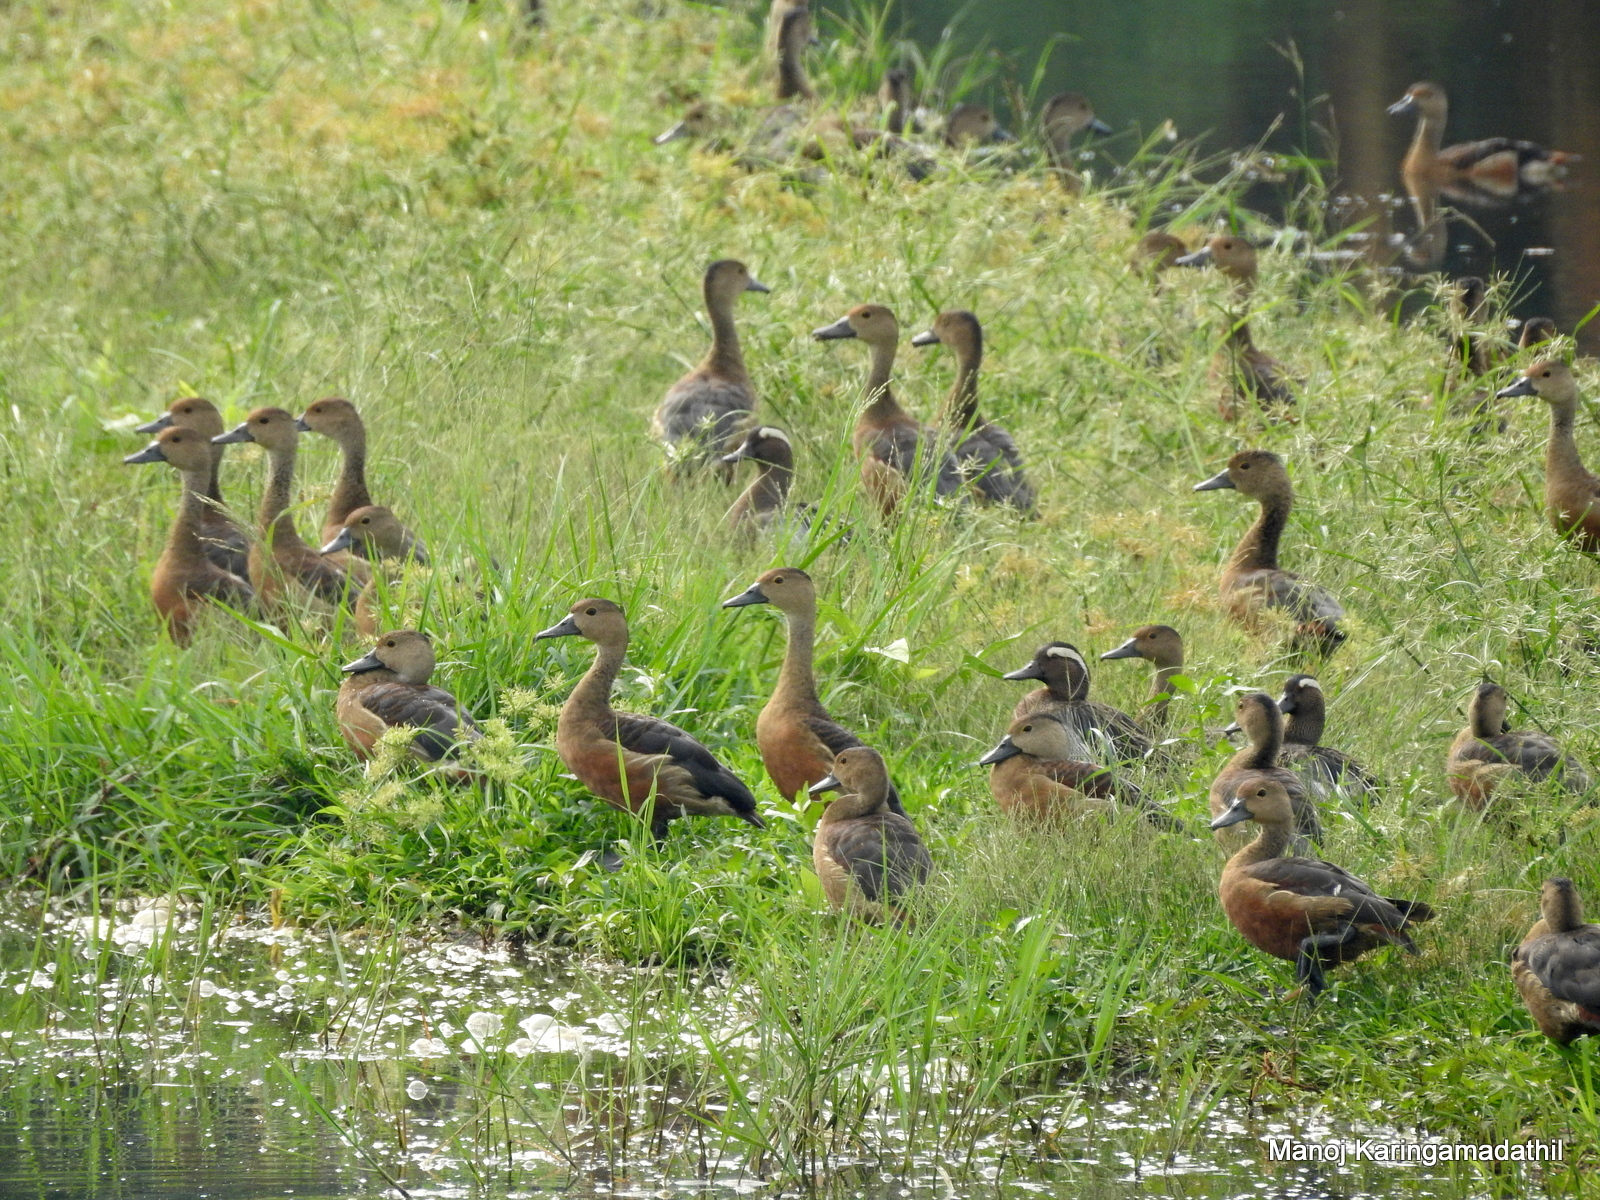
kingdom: Animalia
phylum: Chordata
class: Aves
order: Anseriformes
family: Anatidae
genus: Dendrocygna
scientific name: Dendrocygna javanica
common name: Lesser whistling-duck
